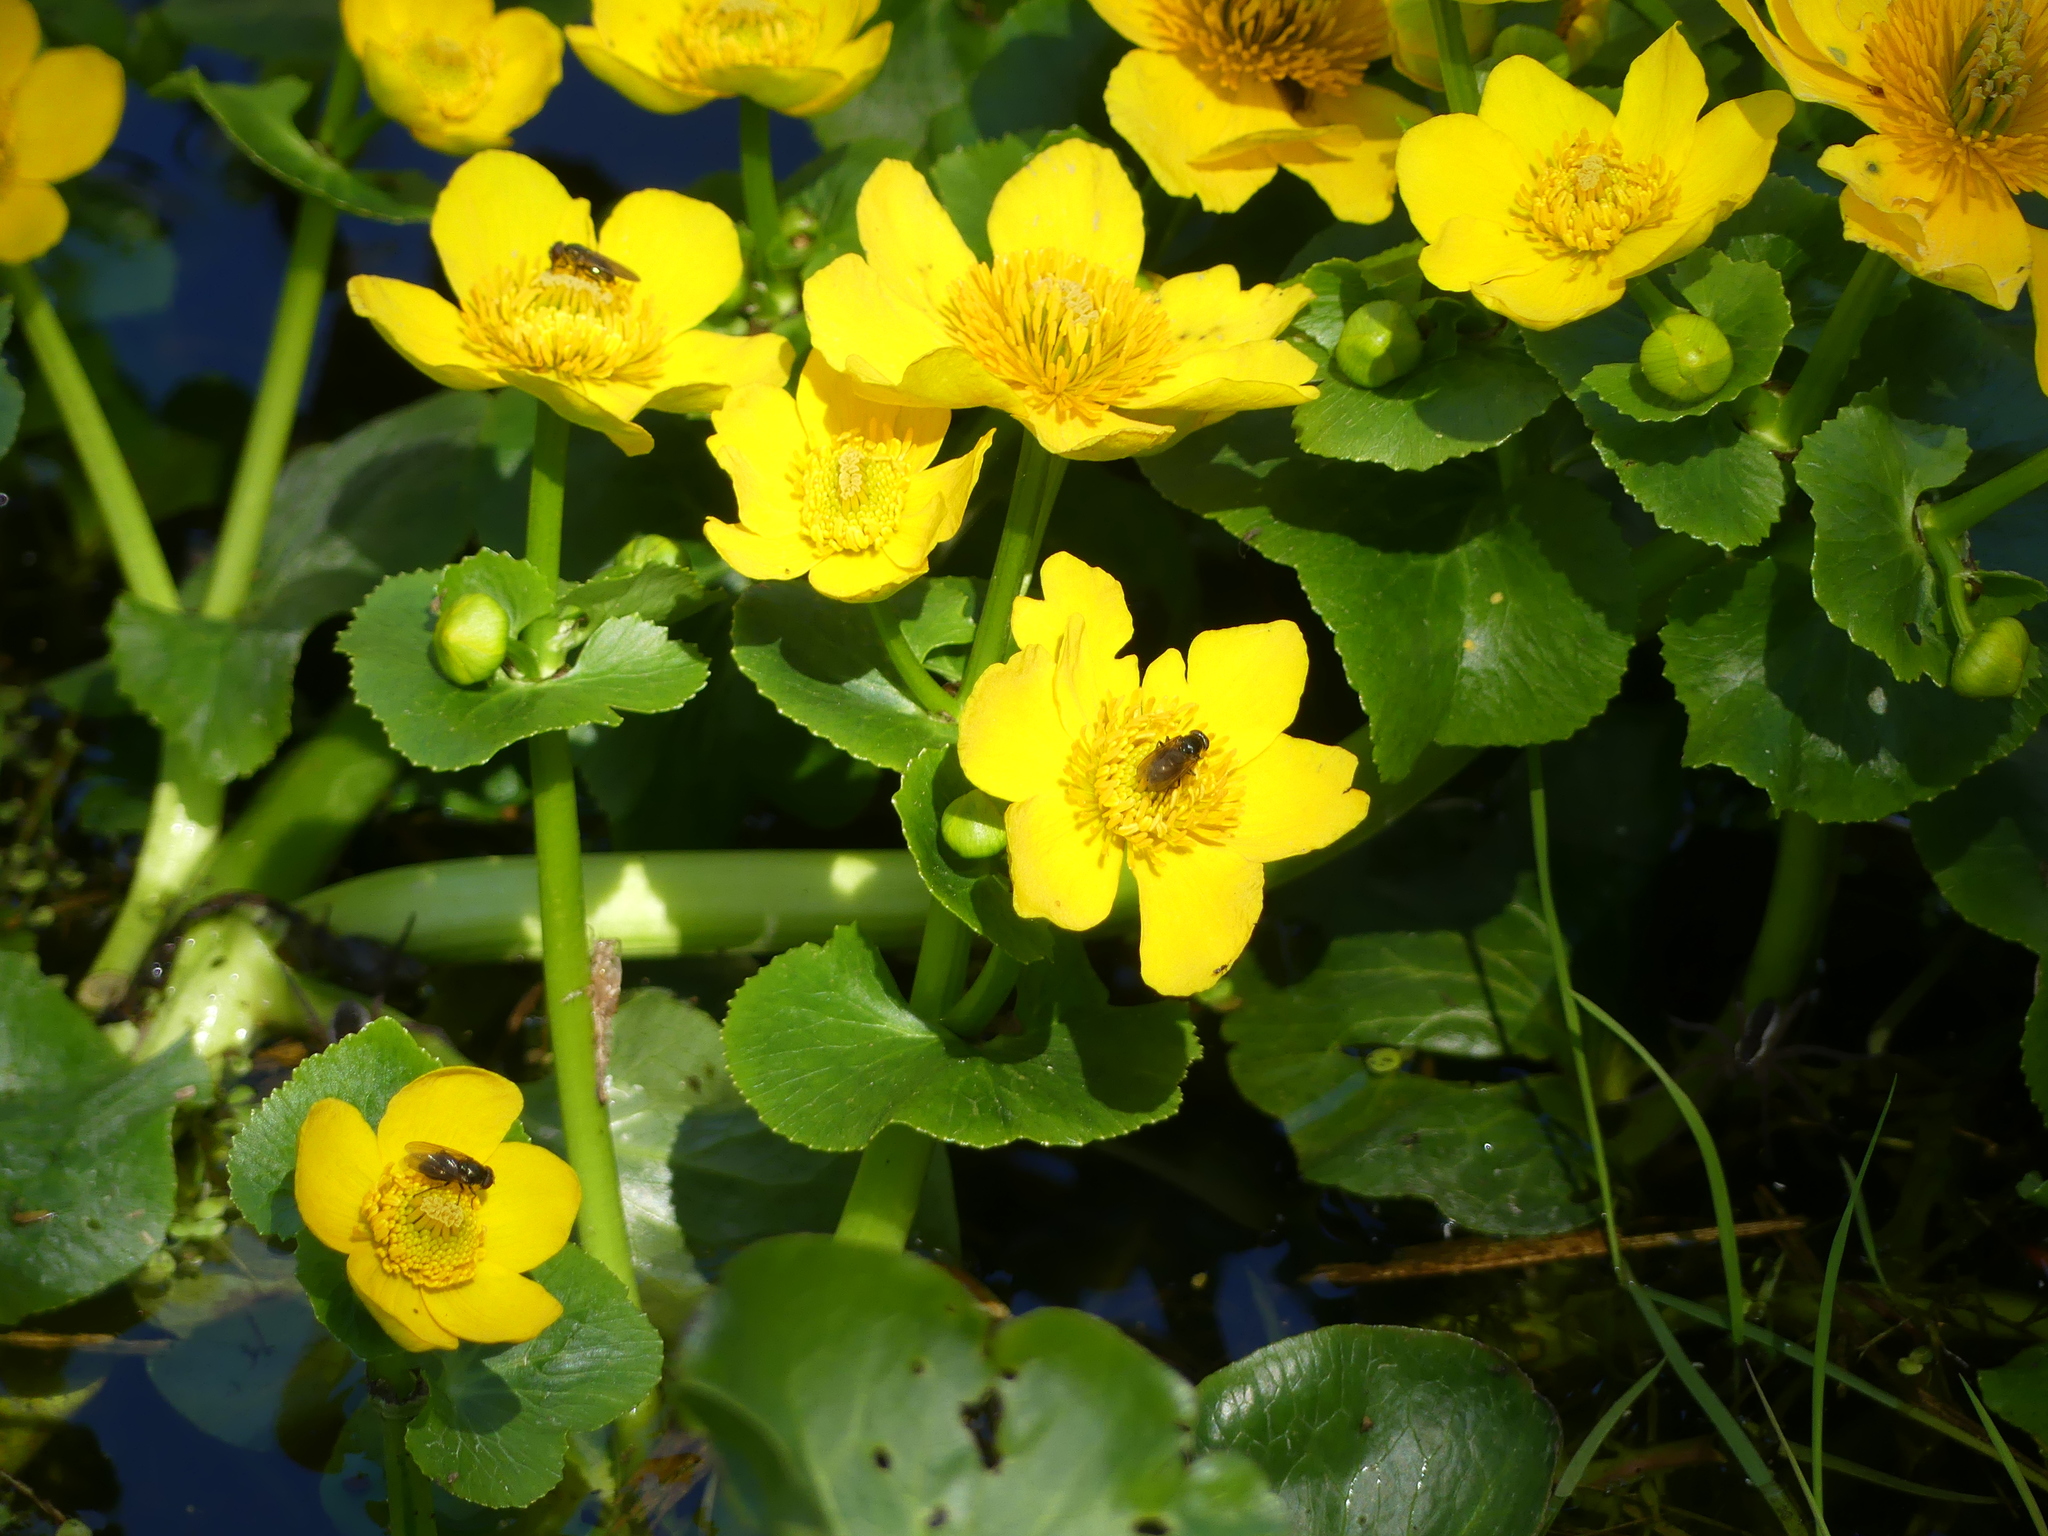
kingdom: Plantae
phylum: Tracheophyta
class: Magnoliopsida
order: Ranunculales
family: Ranunculaceae
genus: Caltha
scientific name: Caltha palustris
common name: Marsh marigold
